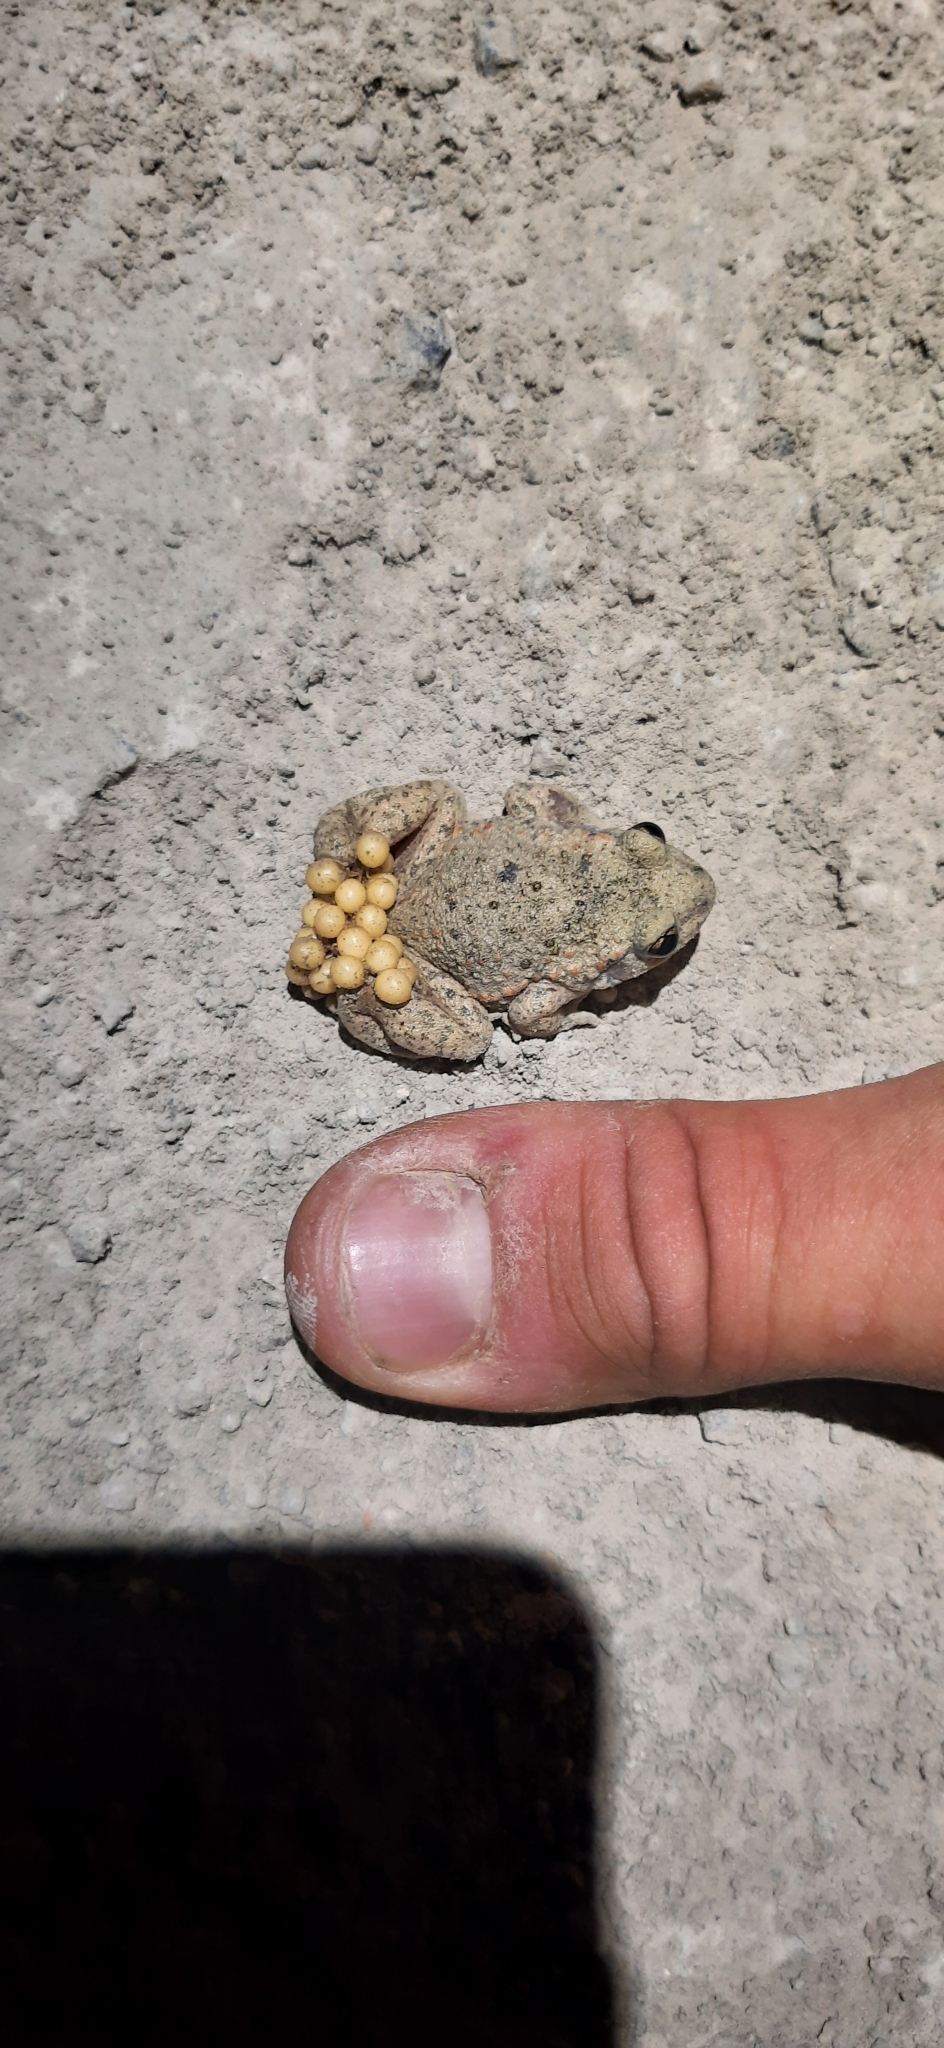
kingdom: Animalia
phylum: Chordata
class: Amphibia
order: Anura
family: Alytidae
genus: Alytes
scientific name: Alytes obstetricans
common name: Midwife toad
